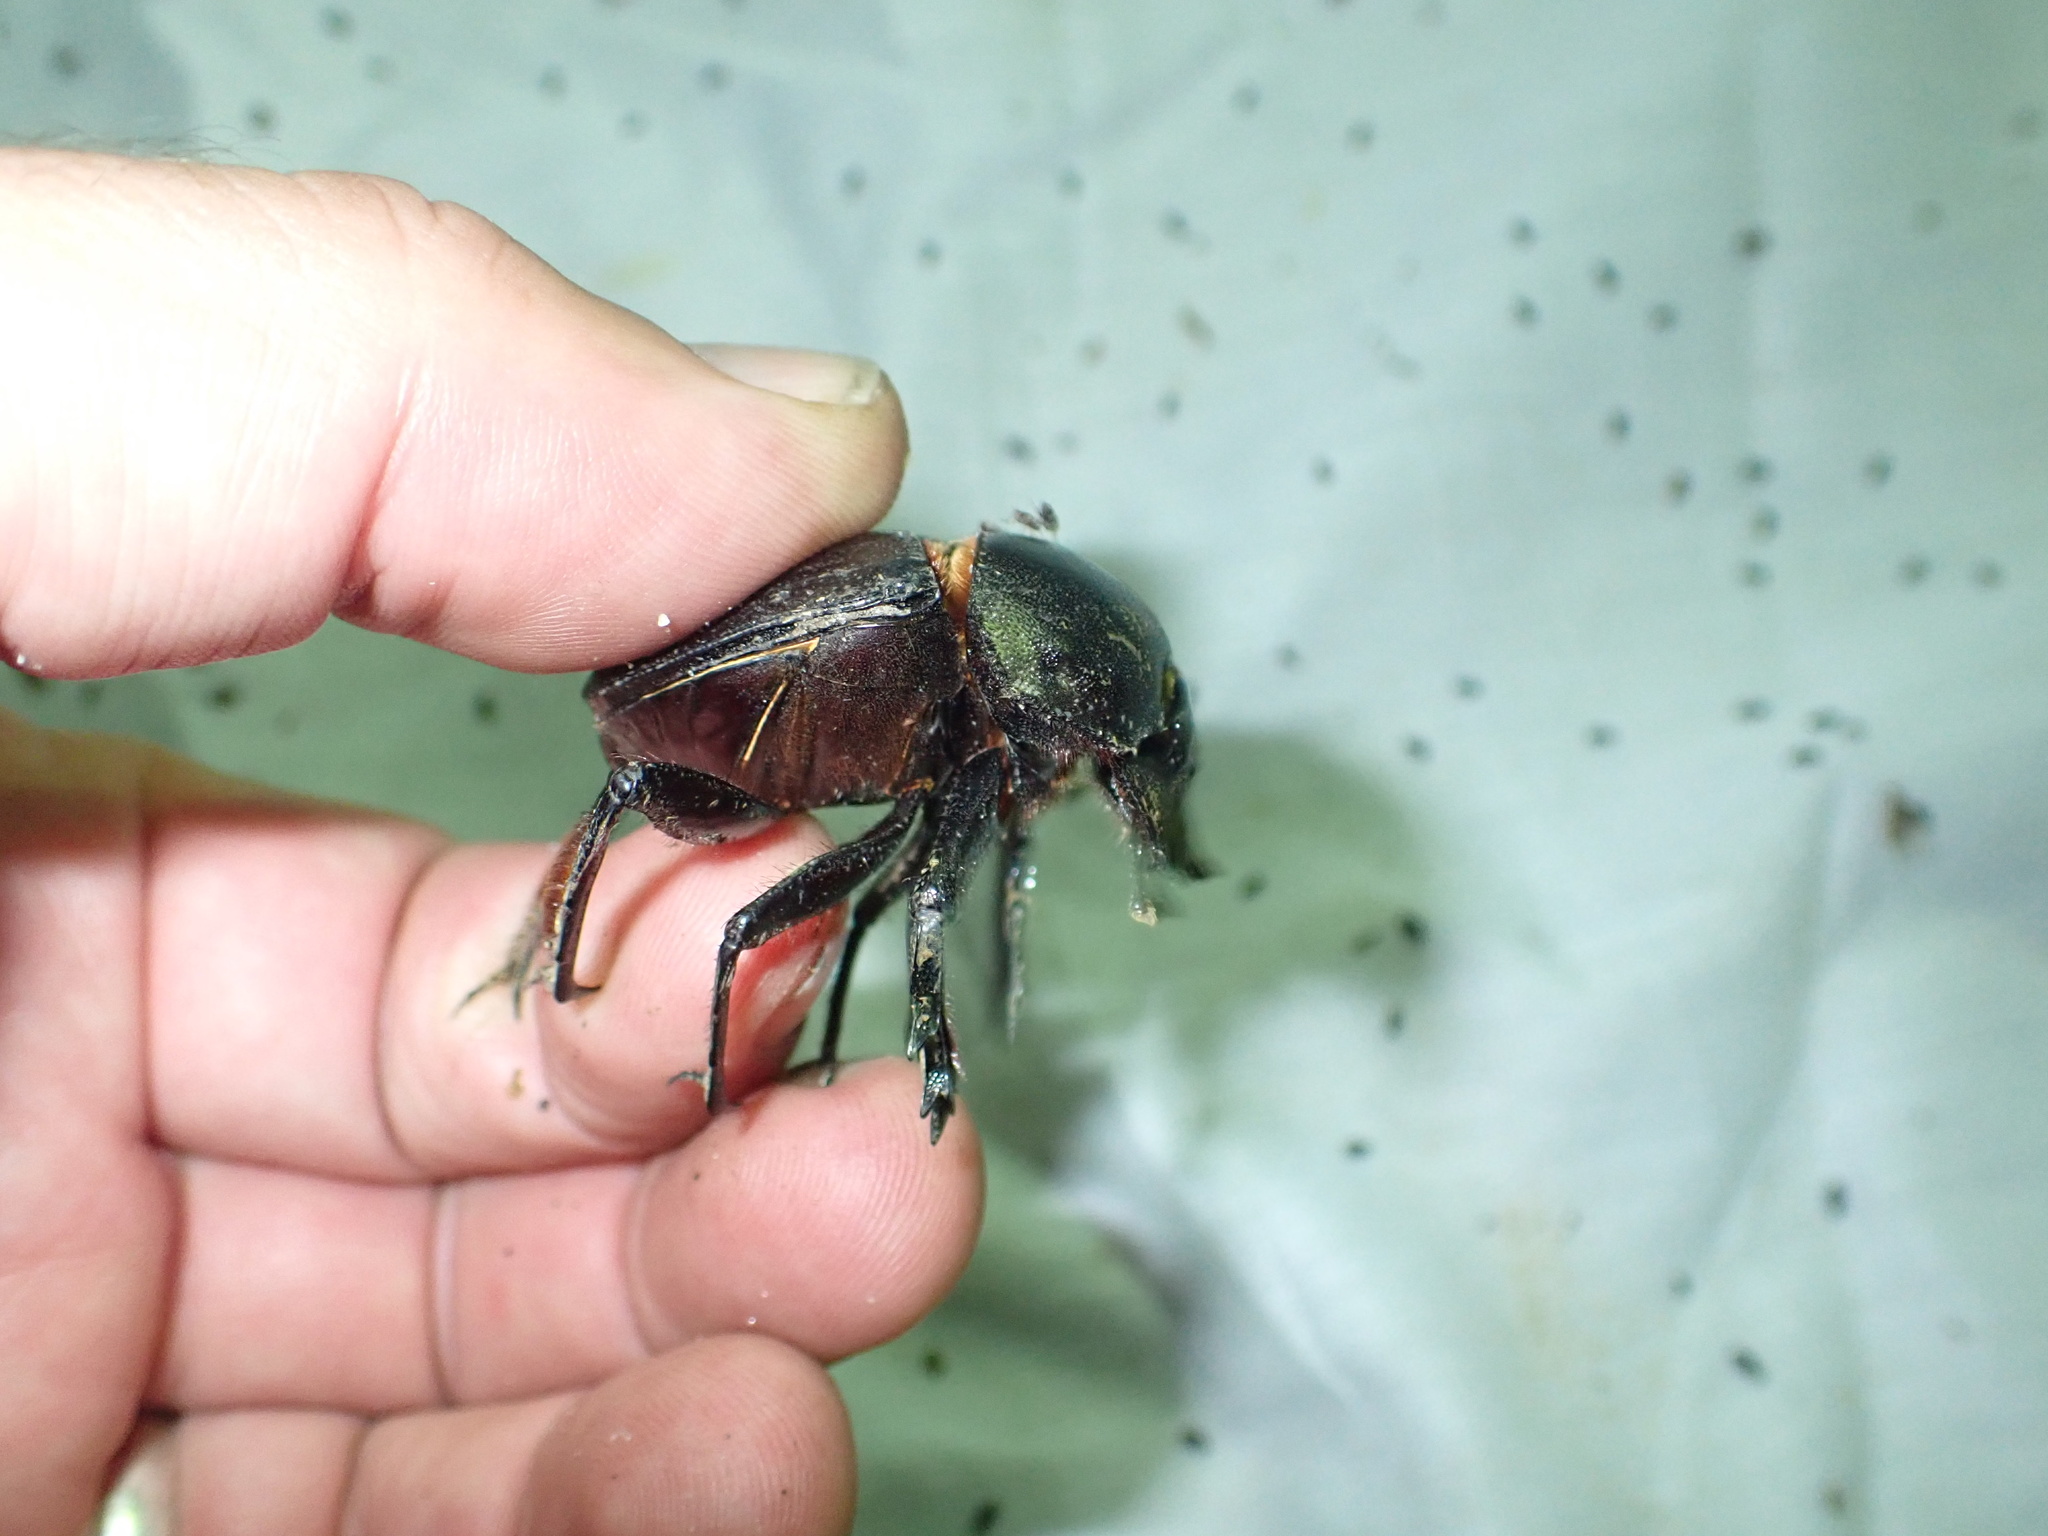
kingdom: Animalia
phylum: Arthropoda
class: Insecta
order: Coleoptera
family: Scarabaeidae
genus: Kheper
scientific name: Kheper prodigiosus
